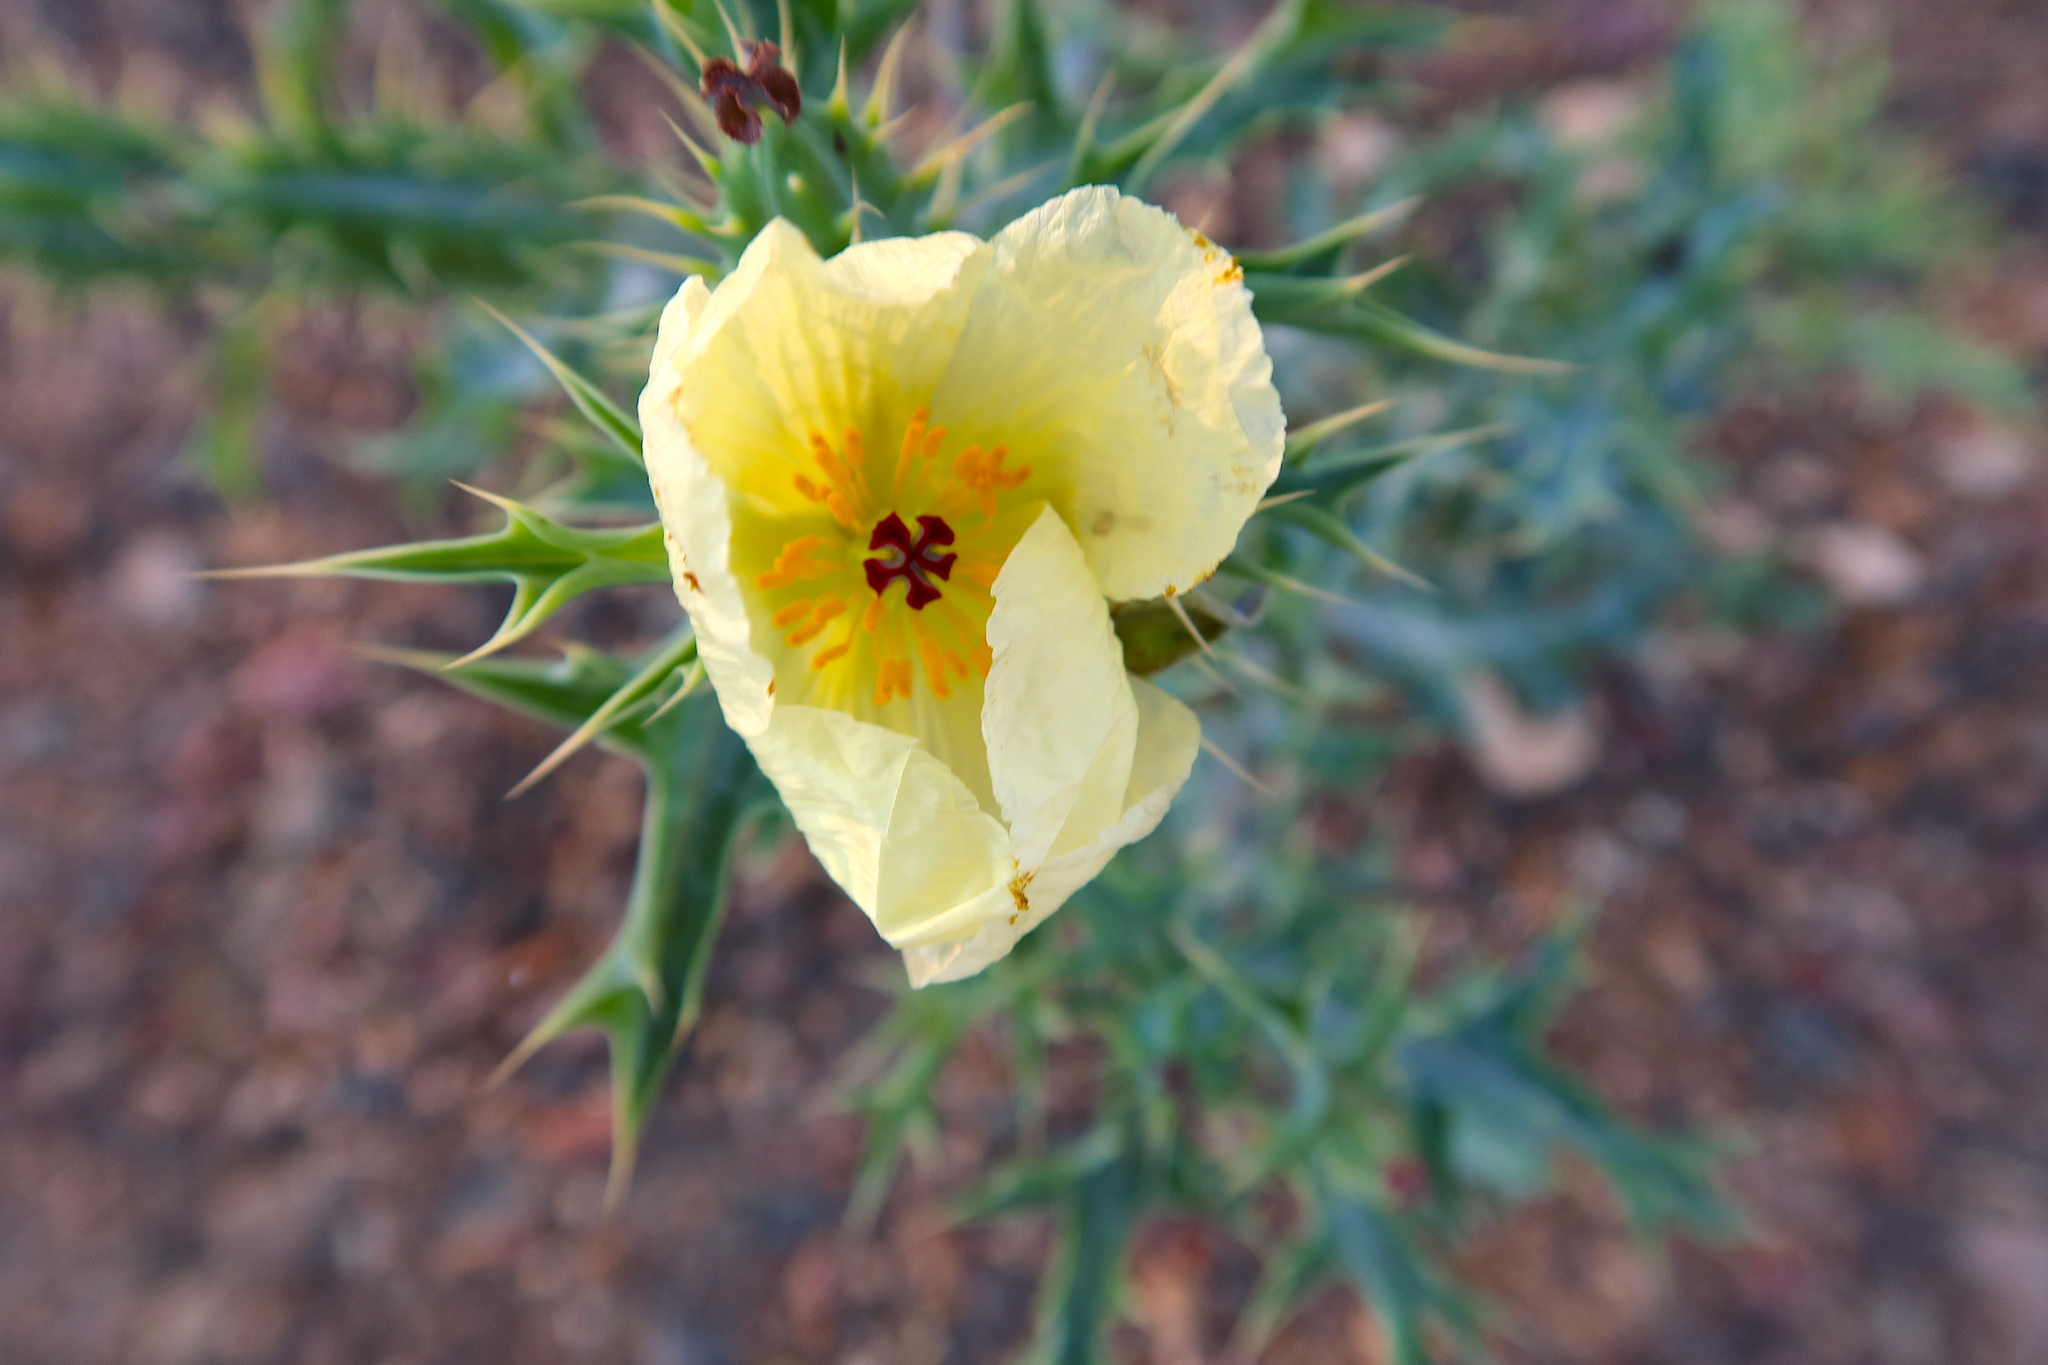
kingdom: Plantae
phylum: Tracheophyta
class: Magnoliopsida
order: Ranunculales
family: Papaveraceae
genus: Argemone
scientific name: Argemone ochroleuca
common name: White-flower mexican-poppy
